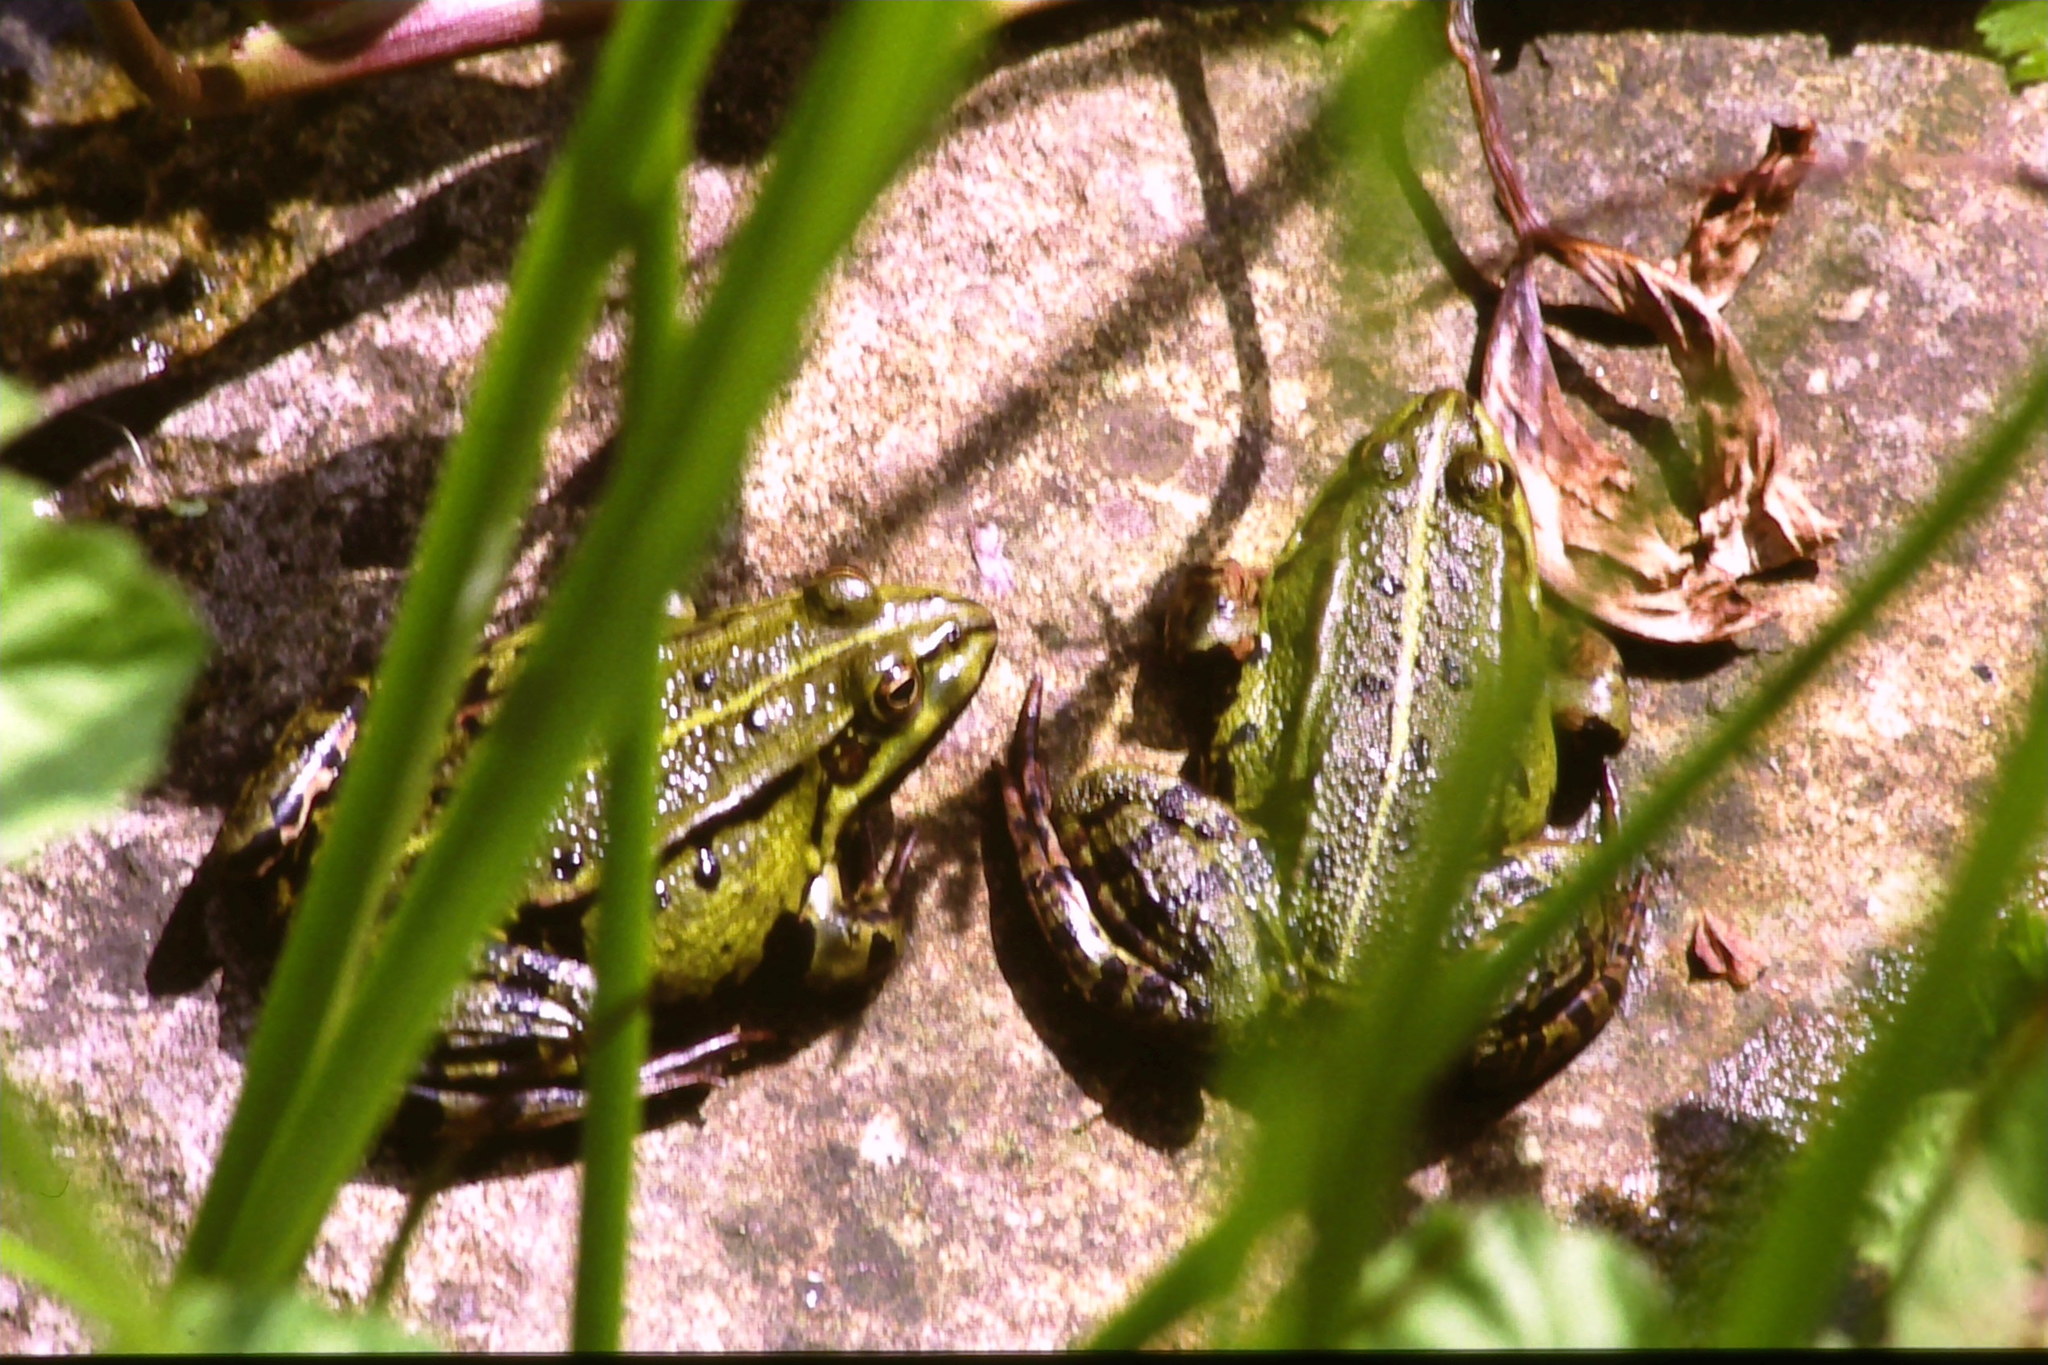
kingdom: Animalia
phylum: Chordata
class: Amphibia
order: Anura
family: Ranidae
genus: Pelophylax
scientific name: Pelophylax
